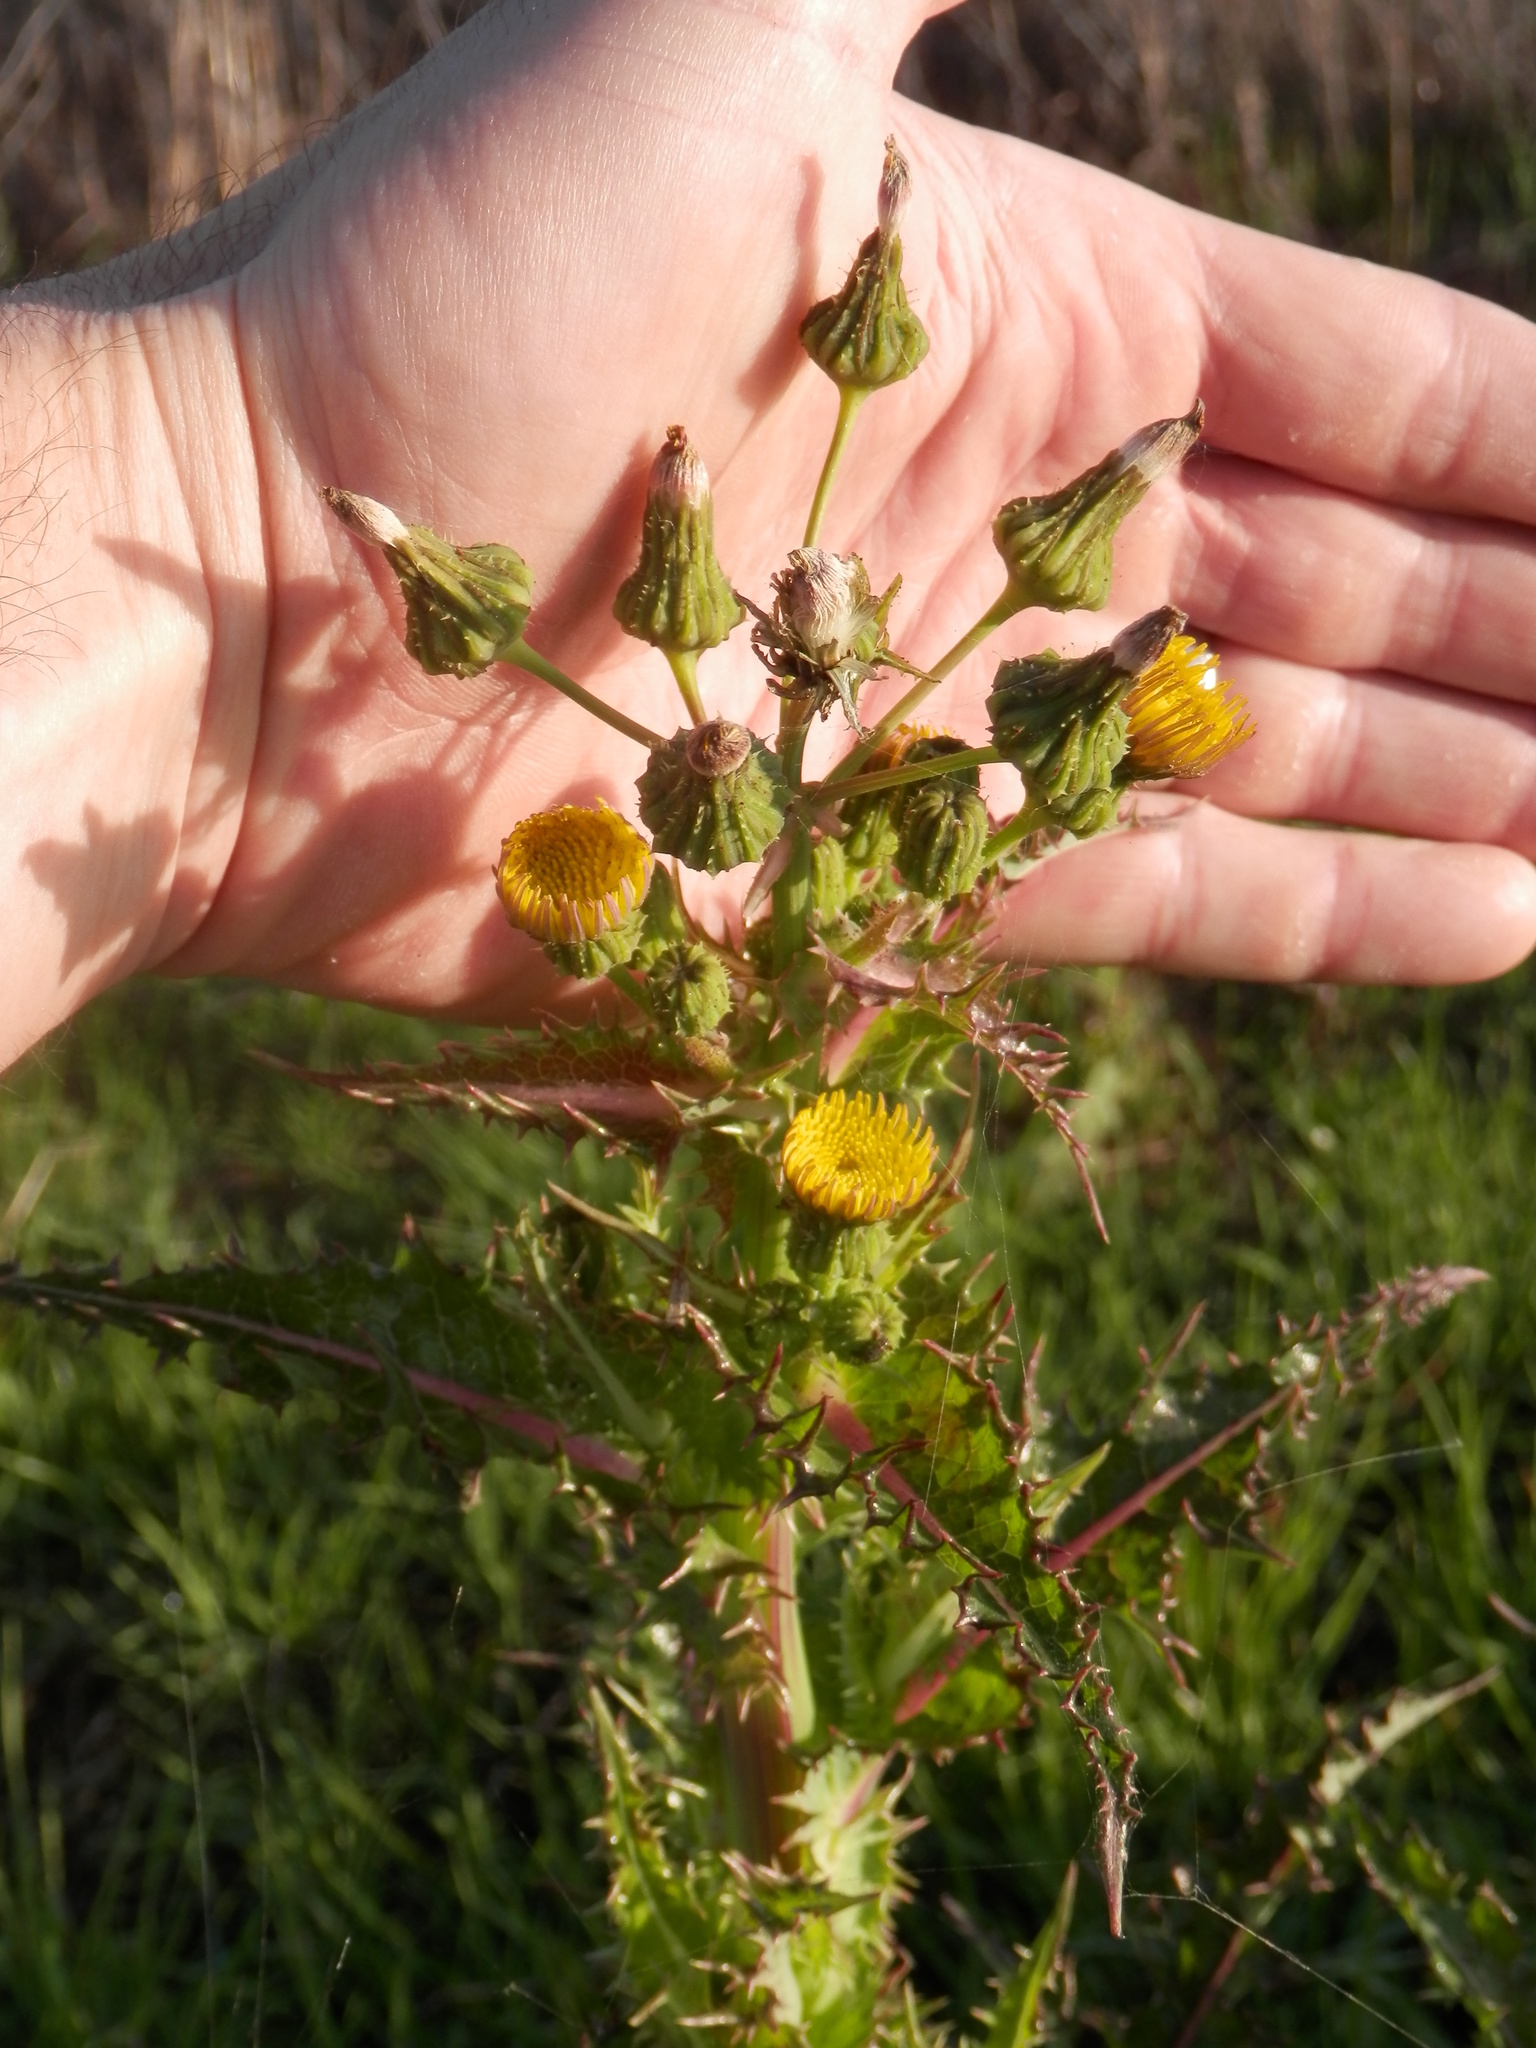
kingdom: Plantae
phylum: Tracheophyta
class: Magnoliopsida
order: Asterales
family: Asteraceae
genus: Sonchus
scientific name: Sonchus oleraceus
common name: Common sowthistle
